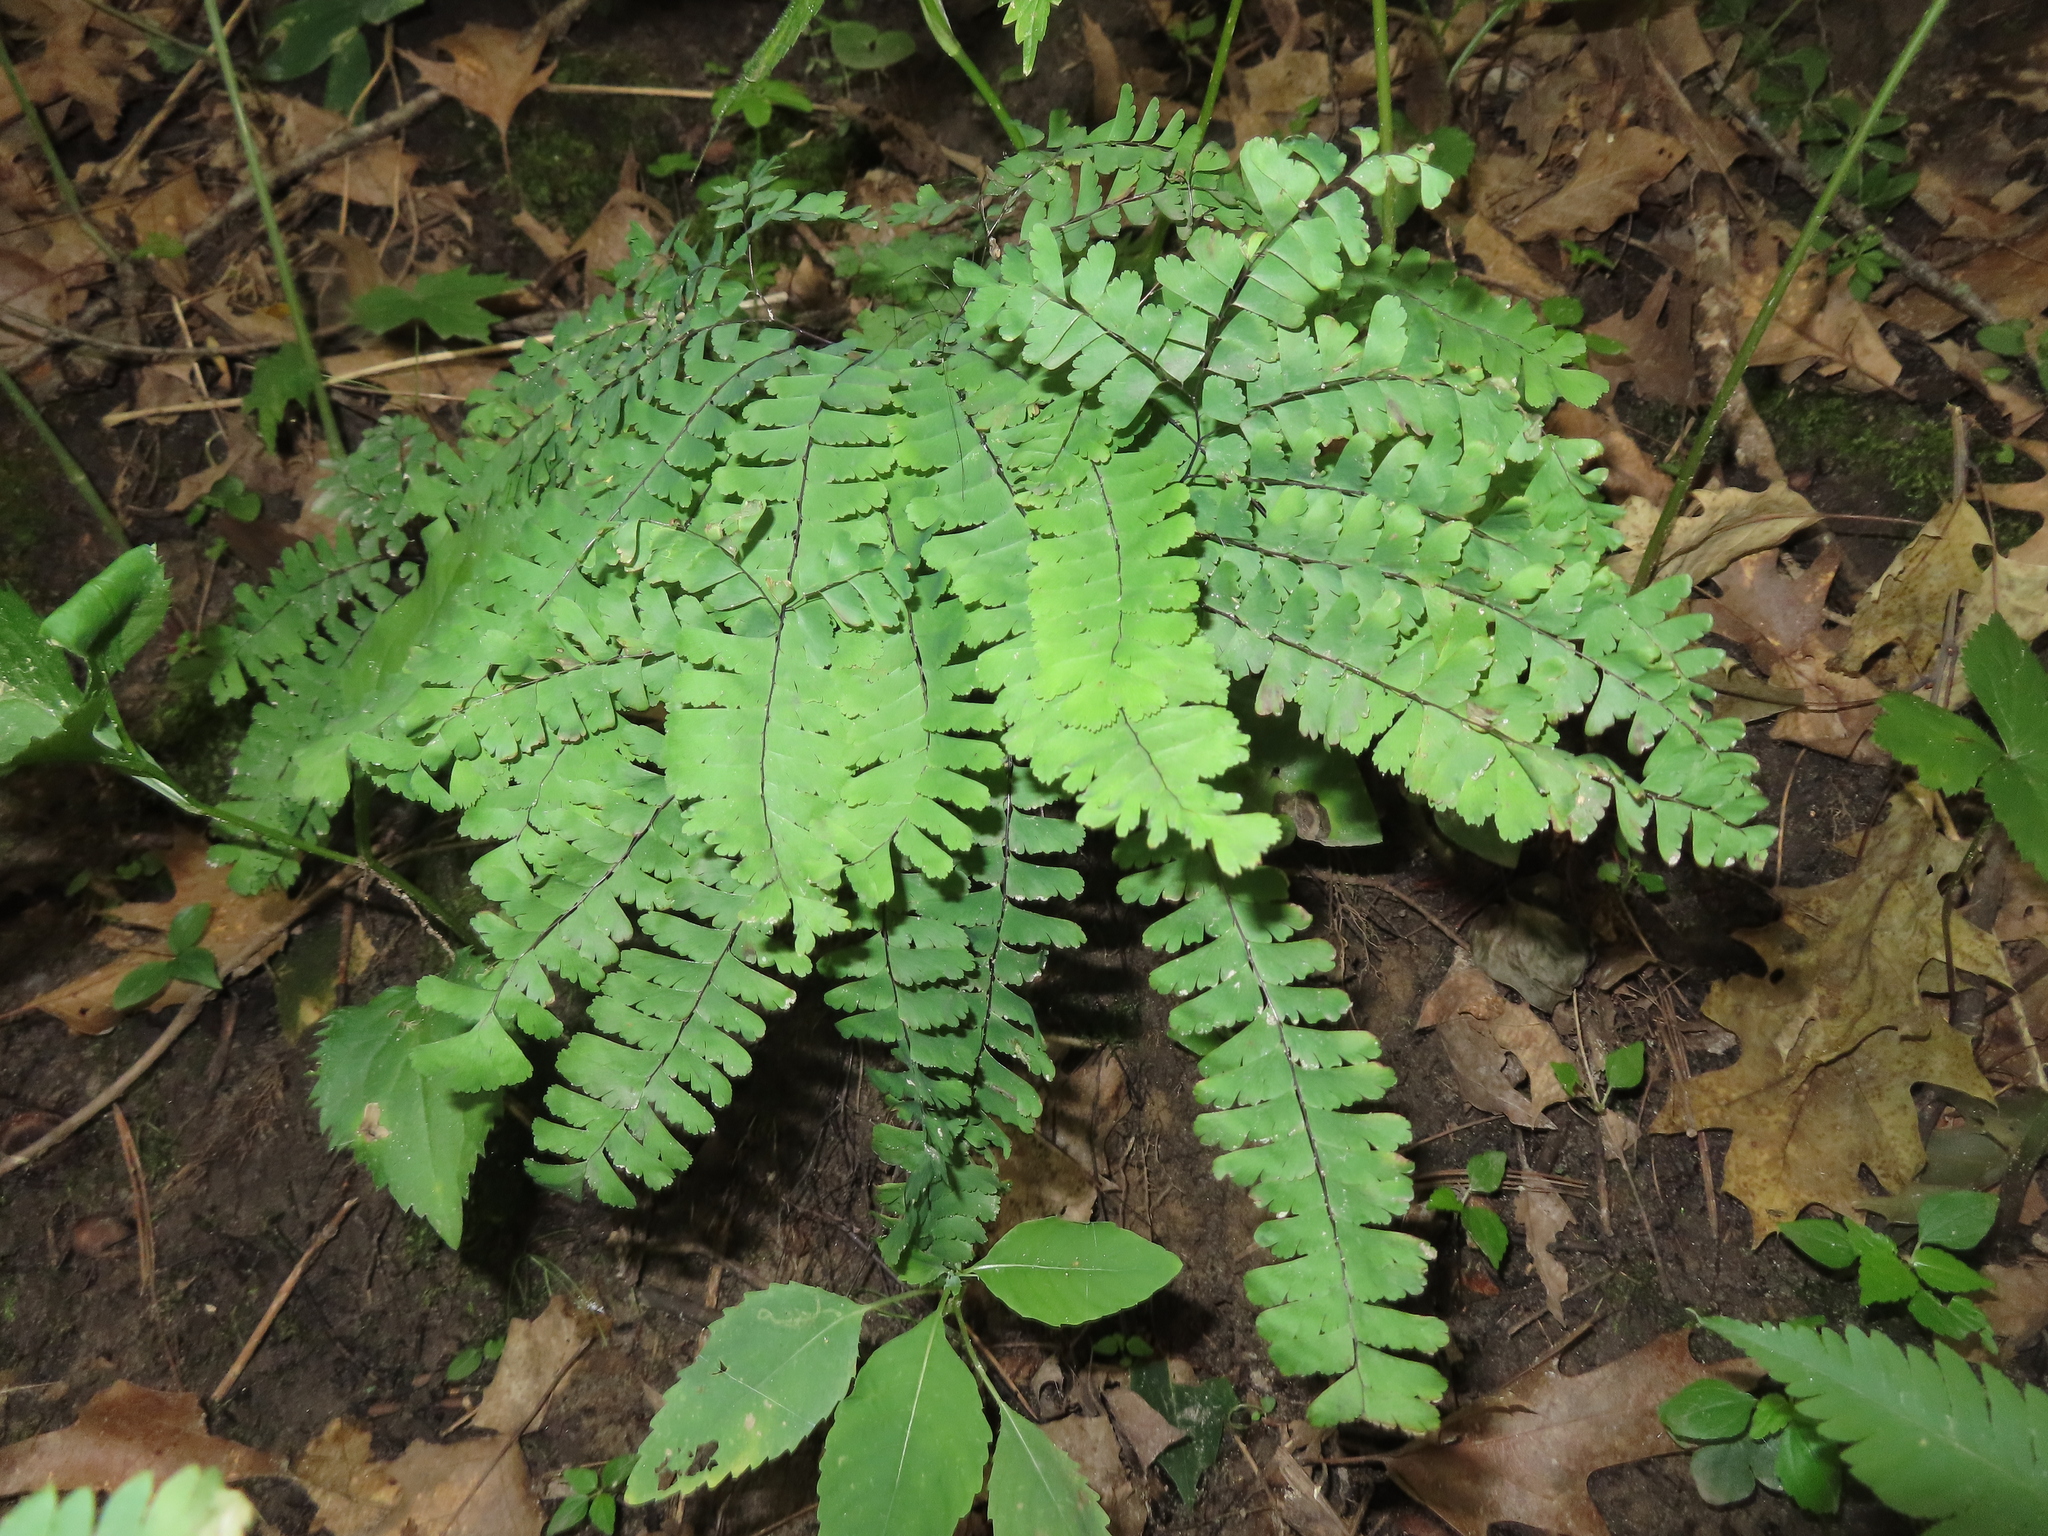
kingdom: Plantae
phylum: Tracheophyta
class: Polypodiopsida
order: Polypodiales
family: Pteridaceae
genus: Adiantum
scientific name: Adiantum pedatum
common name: Five-finger fern
